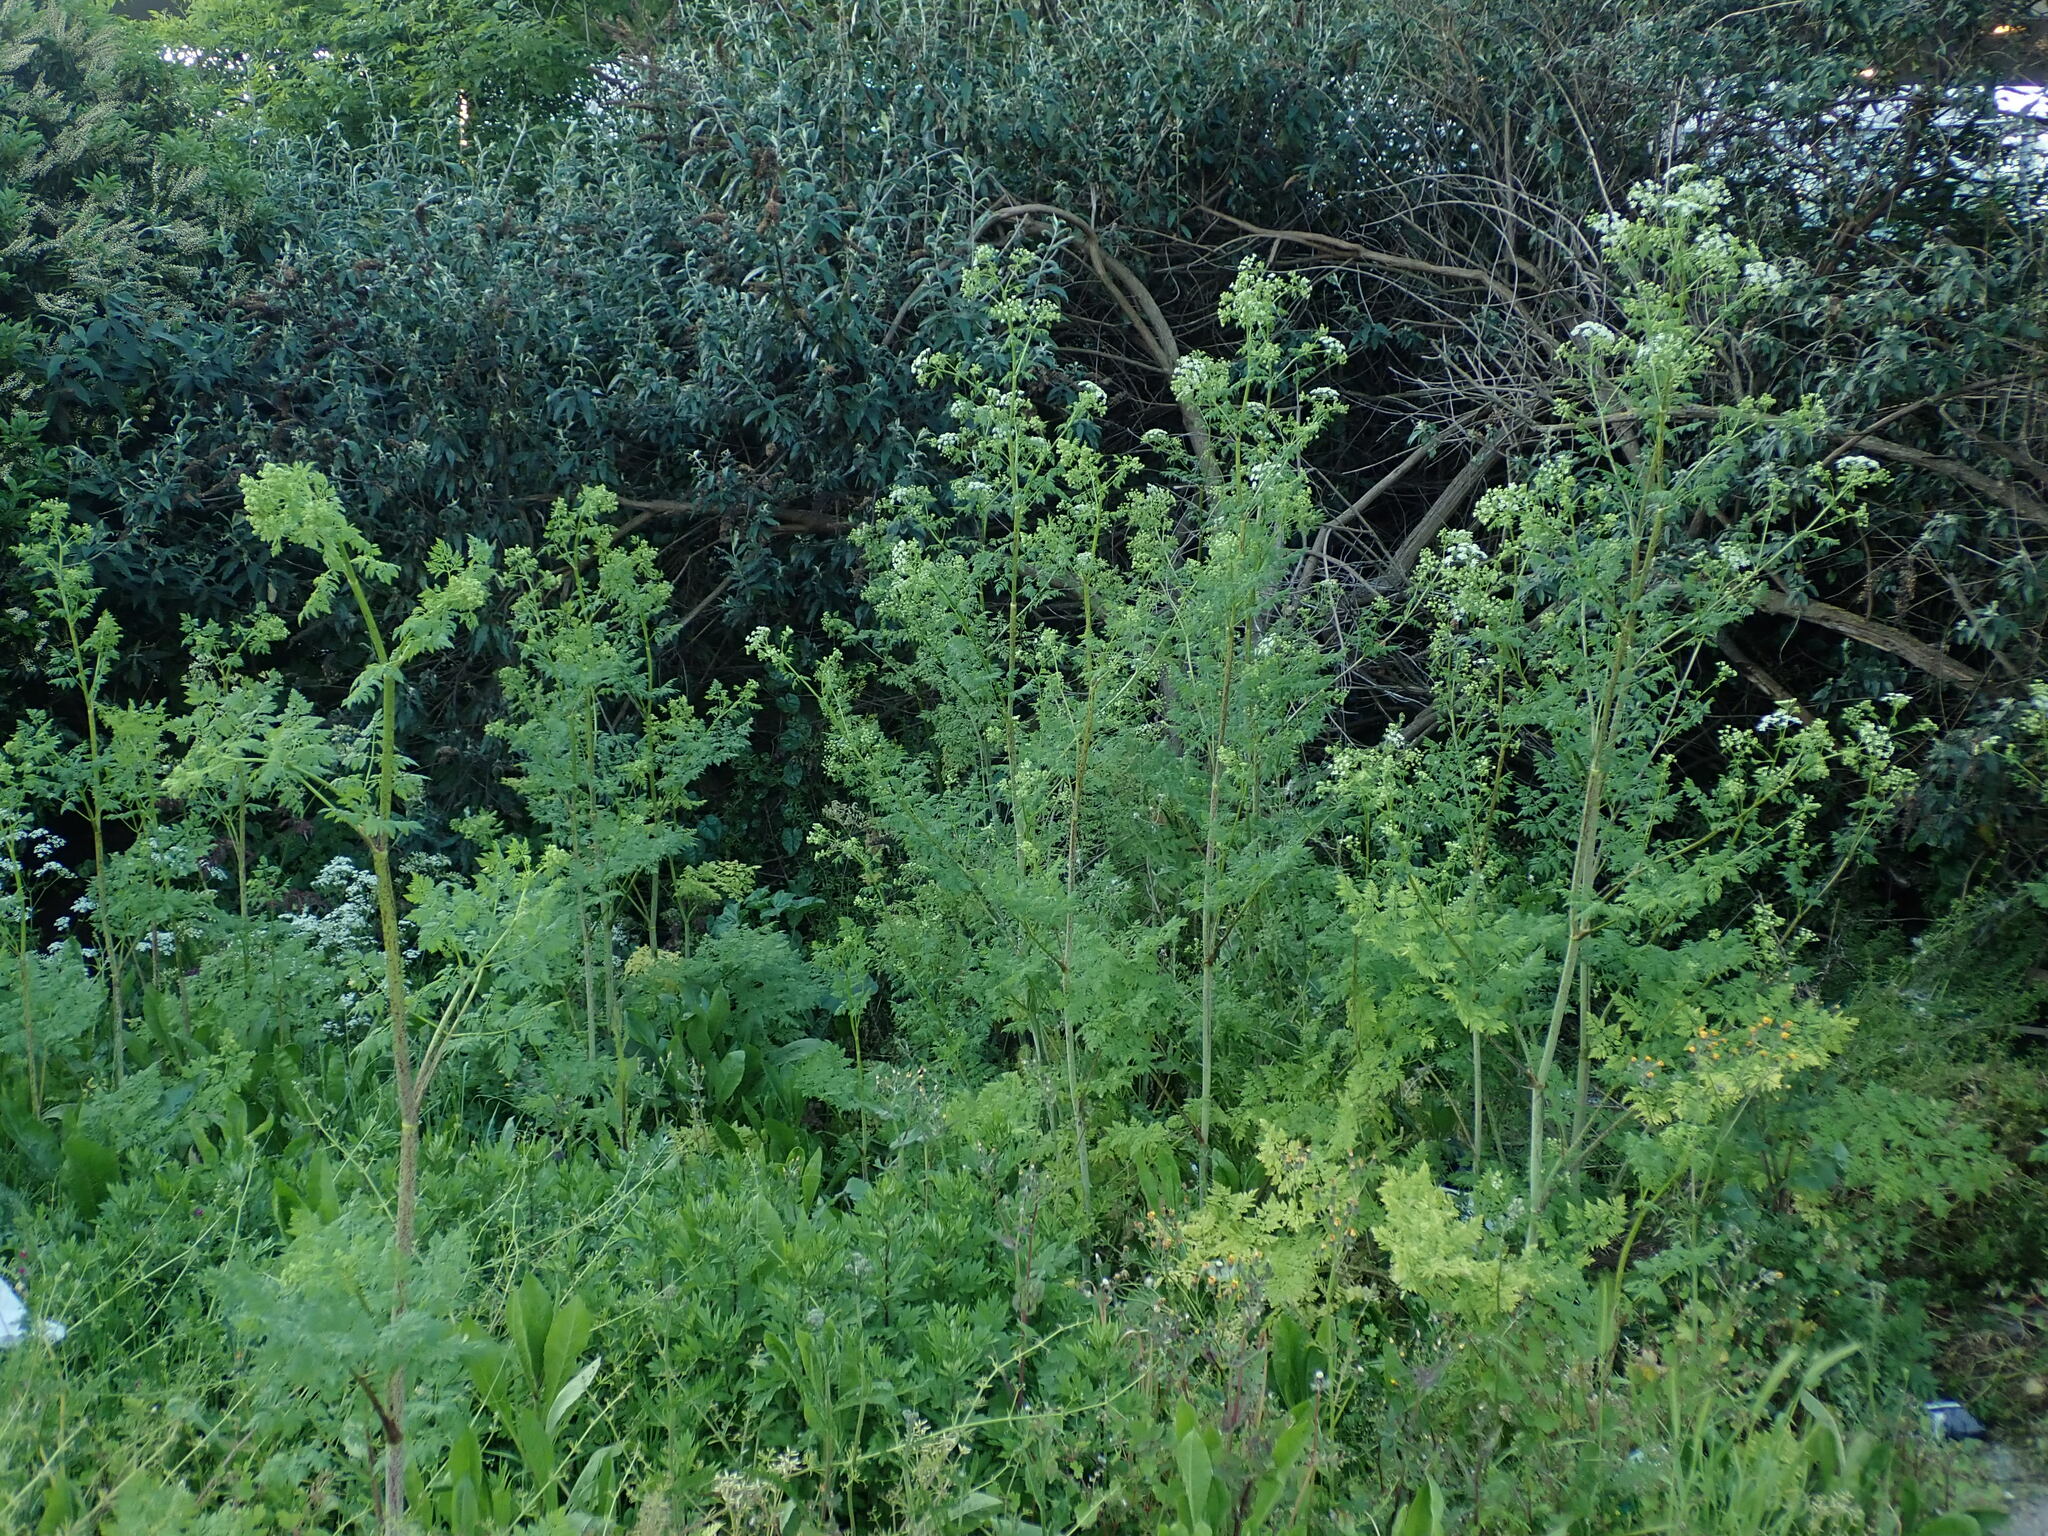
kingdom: Plantae
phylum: Tracheophyta
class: Magnoliopsida
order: Apiales
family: Apiaceae
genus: Conium
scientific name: Conium maculatum
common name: Hemlock
